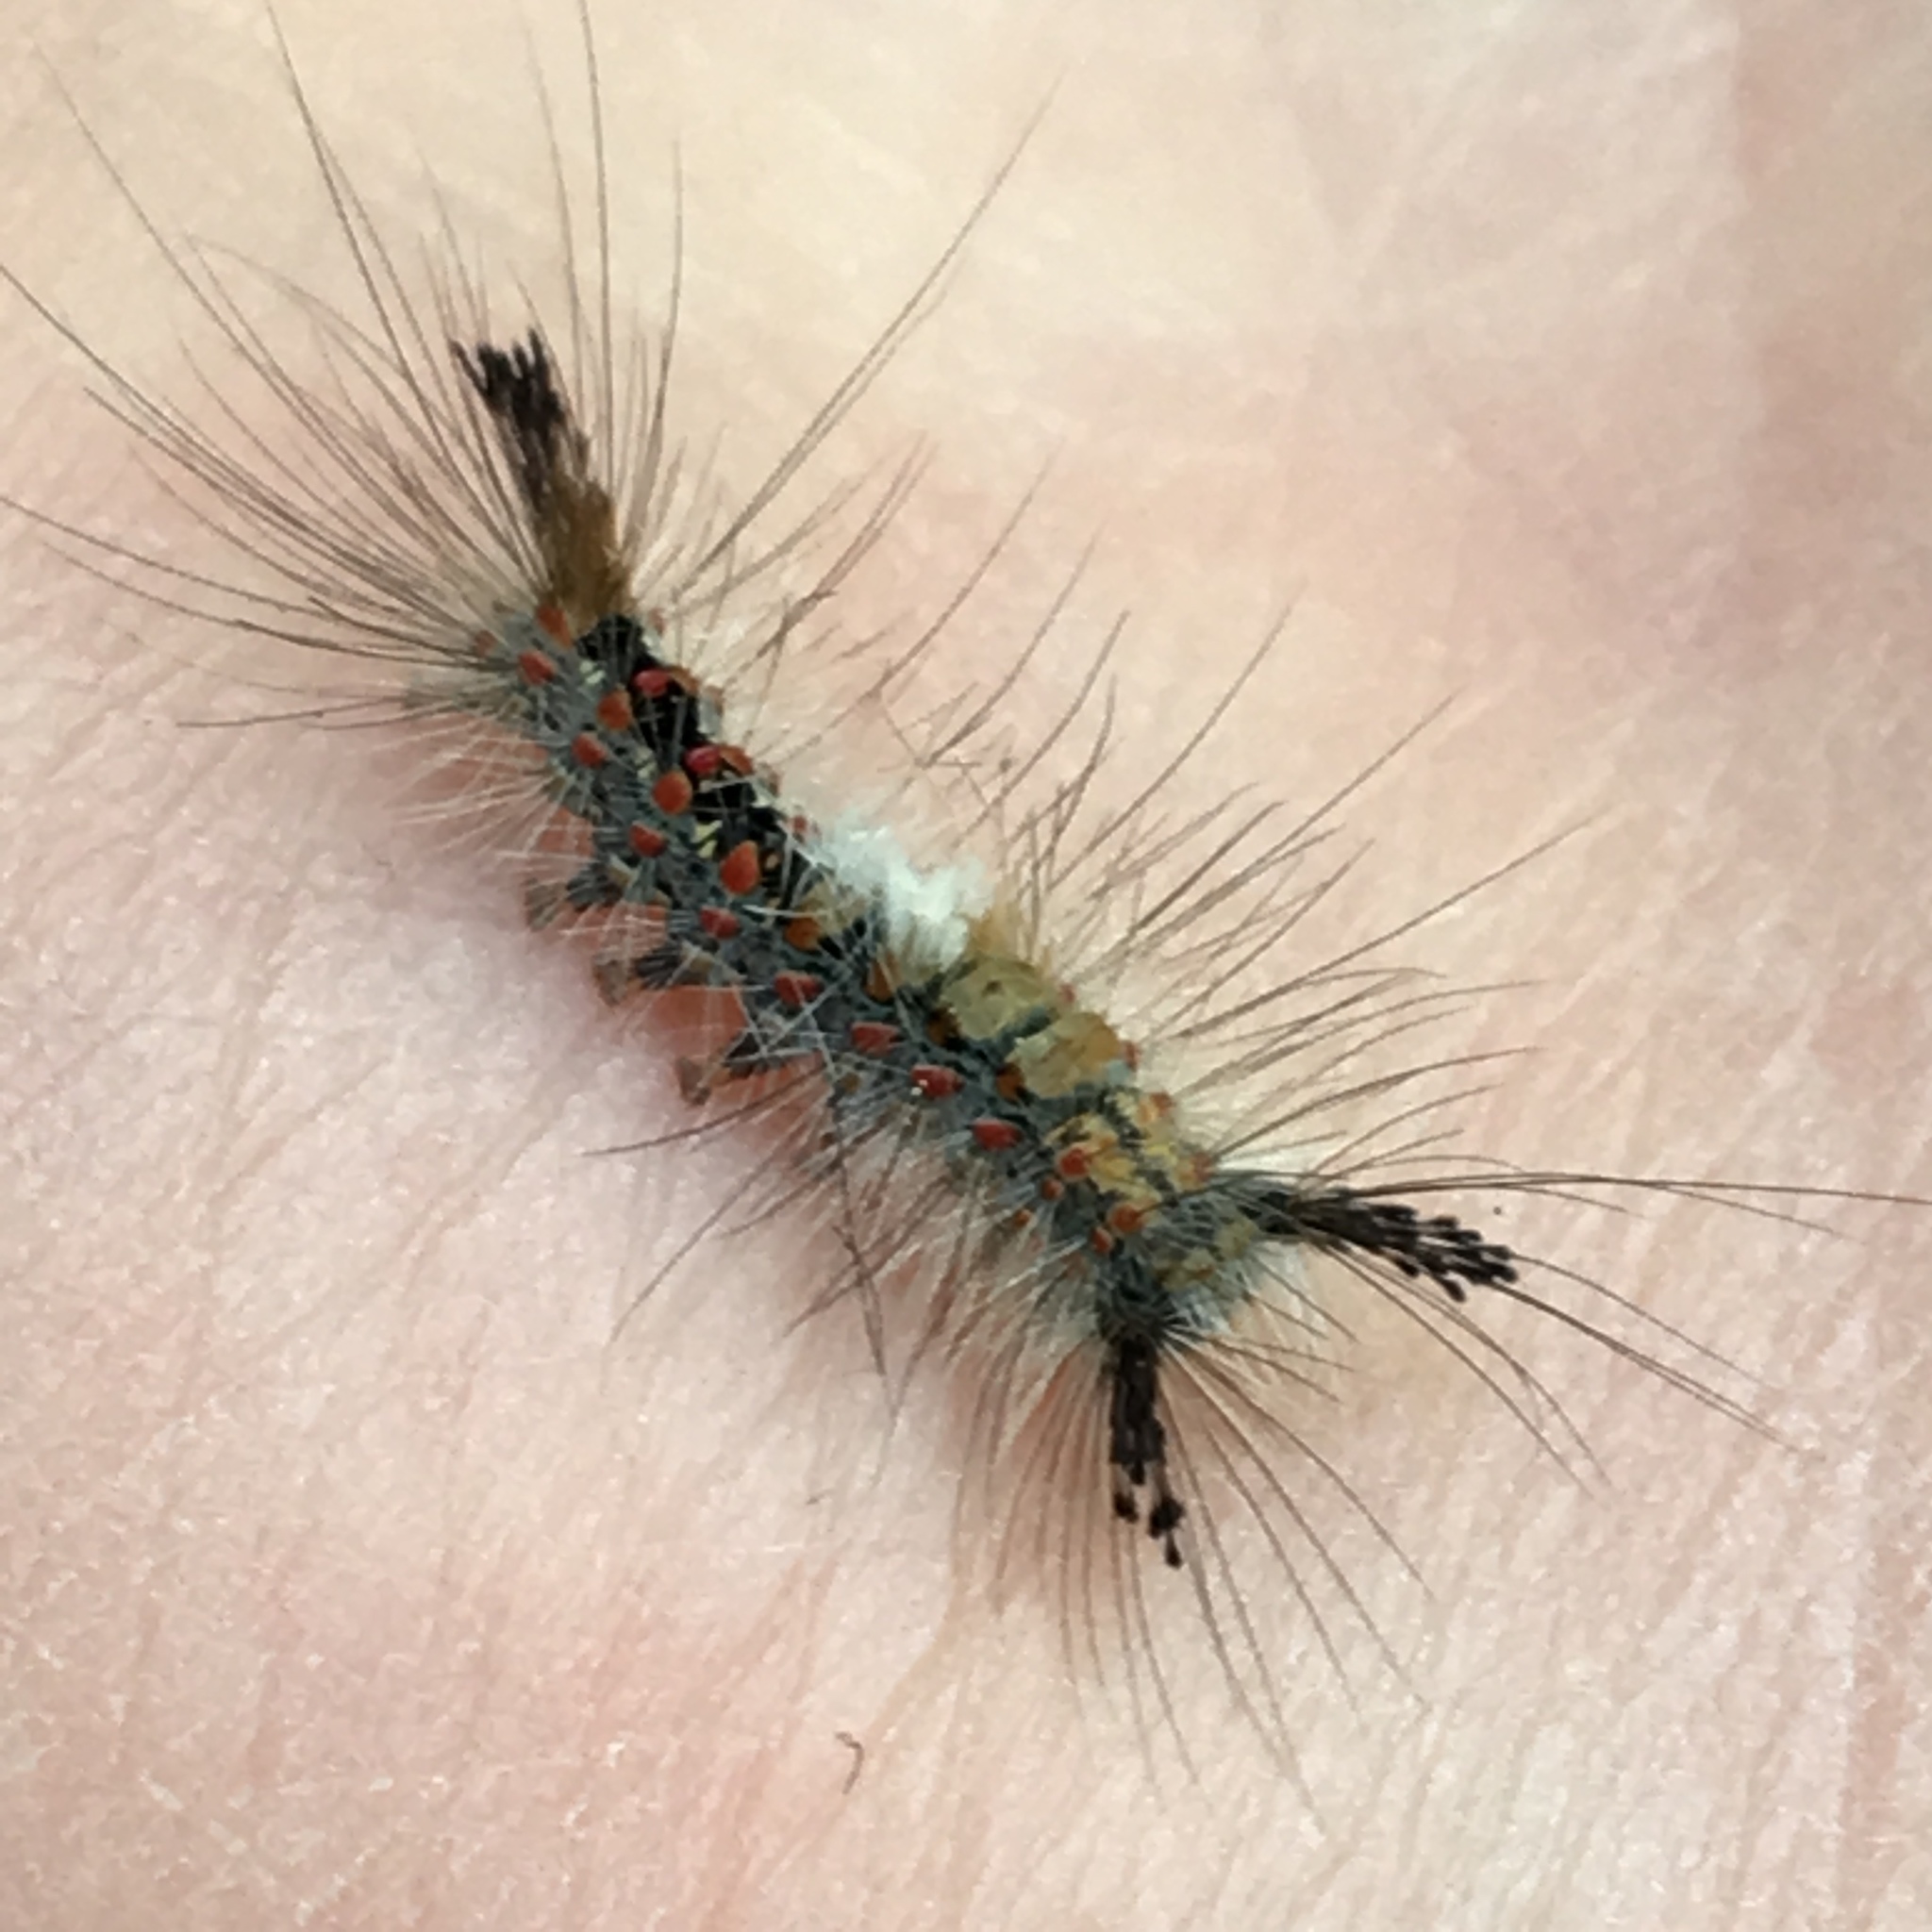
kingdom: Animalia
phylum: Arthropoda
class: Insecta
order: Lepidoptera
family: Erebidae
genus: Orgyia
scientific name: Orgyia vetusta
